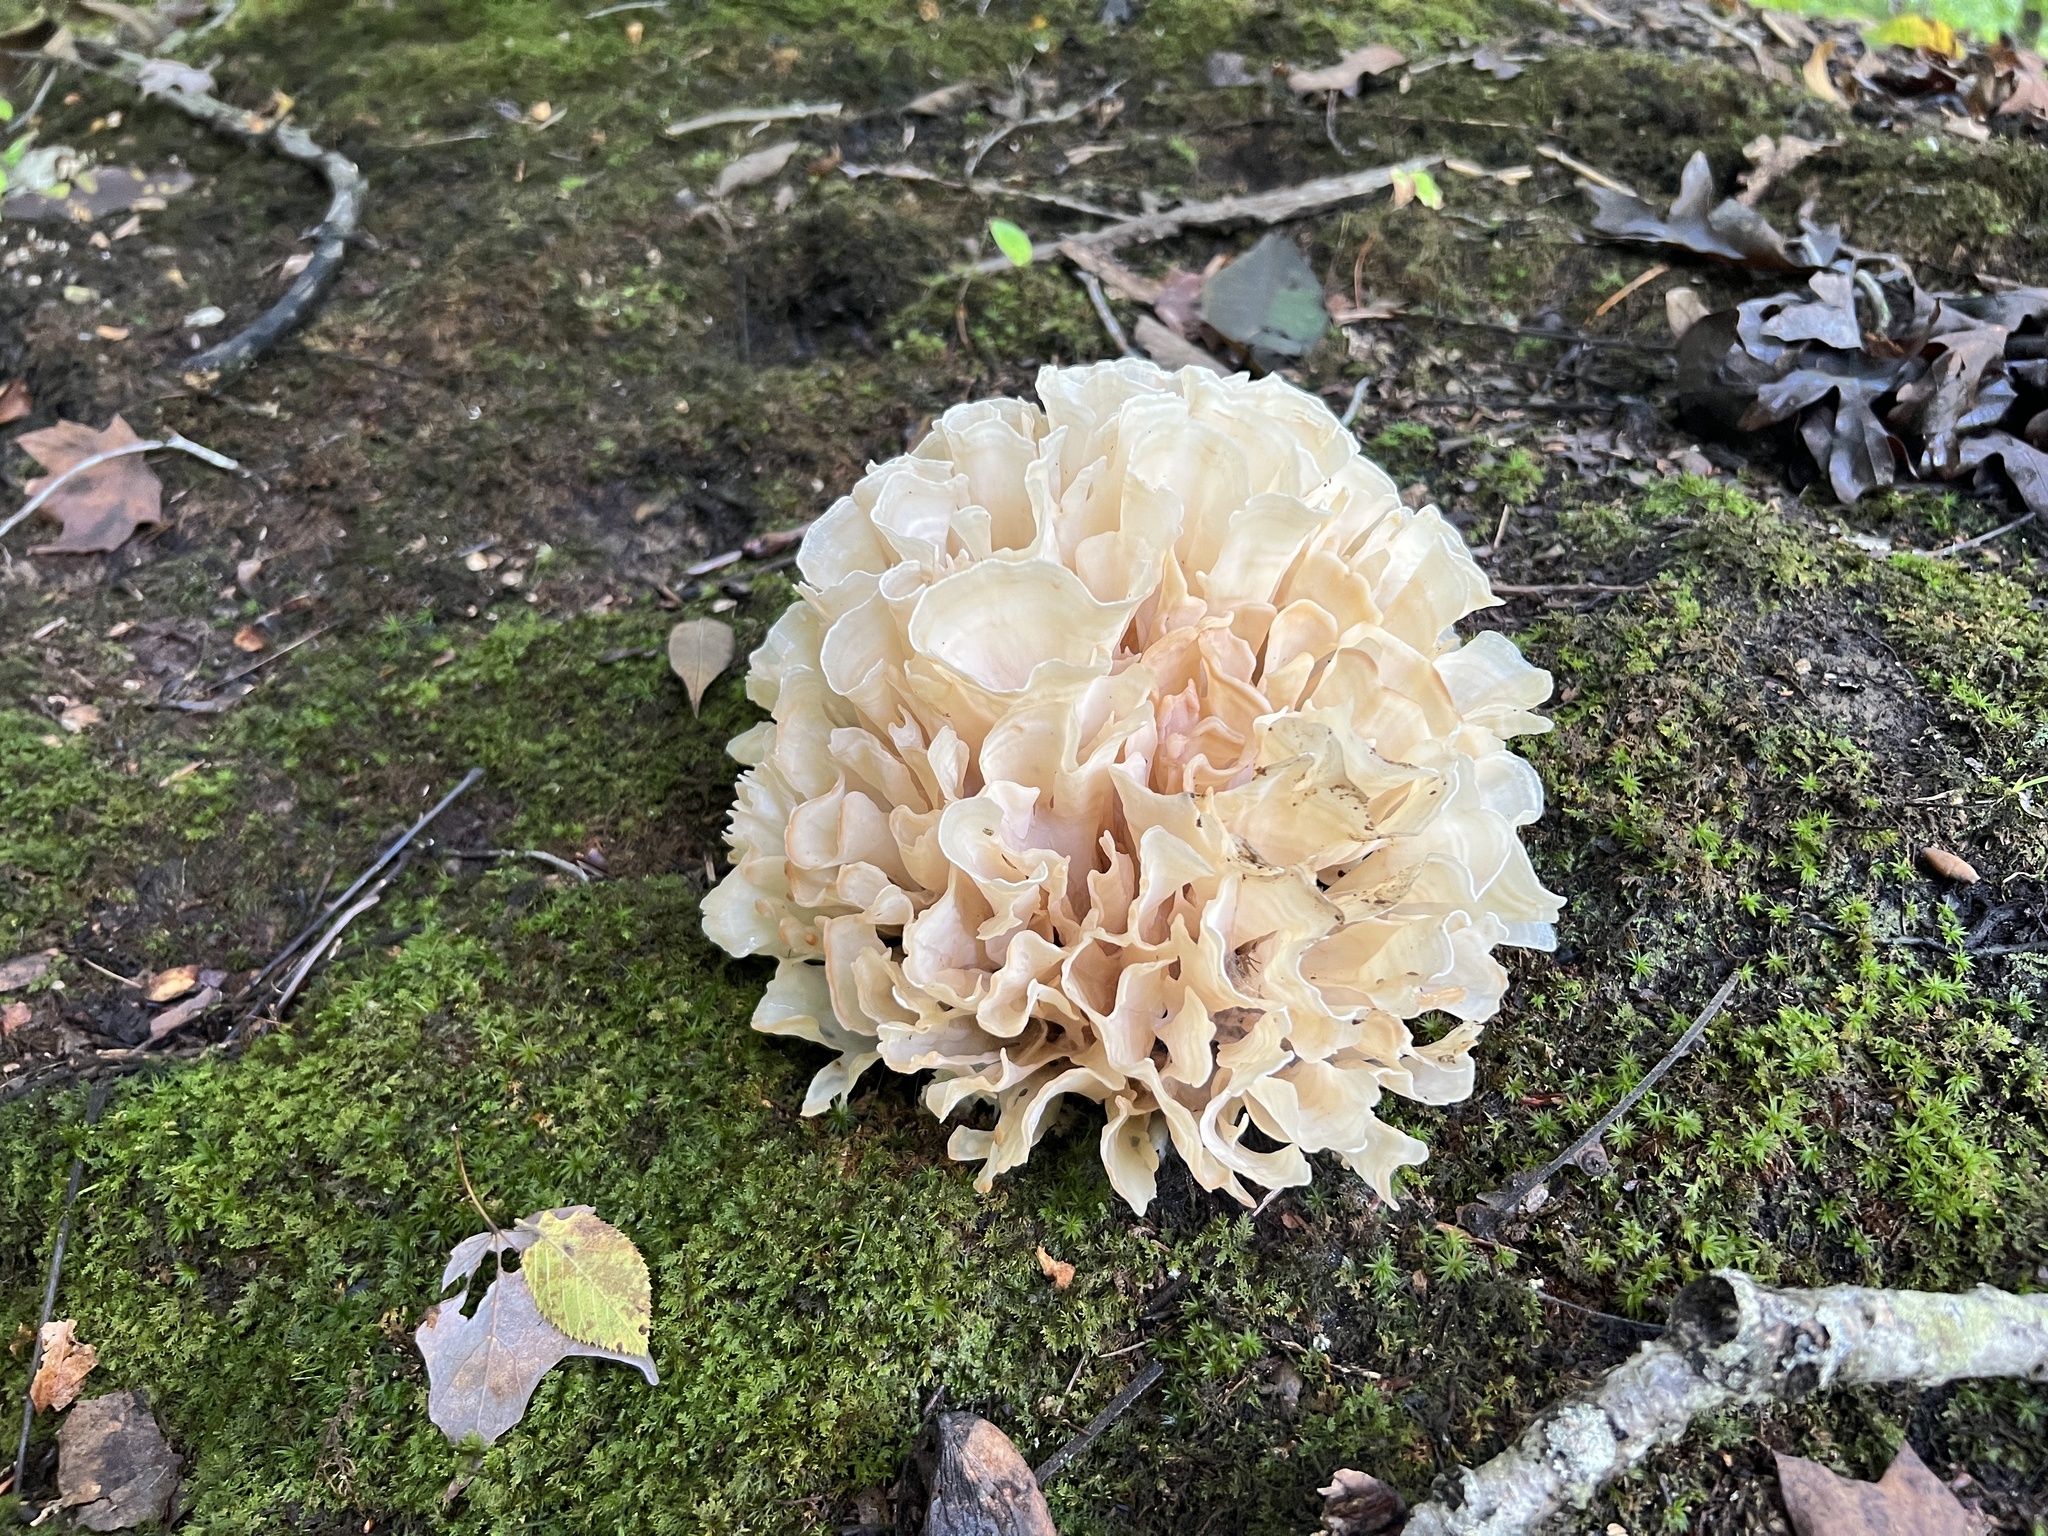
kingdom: Fungi
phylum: Basidiomycota
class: Agaricomycetes
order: Polyporales
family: Sparassidaceae
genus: Sparassis
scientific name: Sparassis spathulata
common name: Eastern cauliflower mushroom
